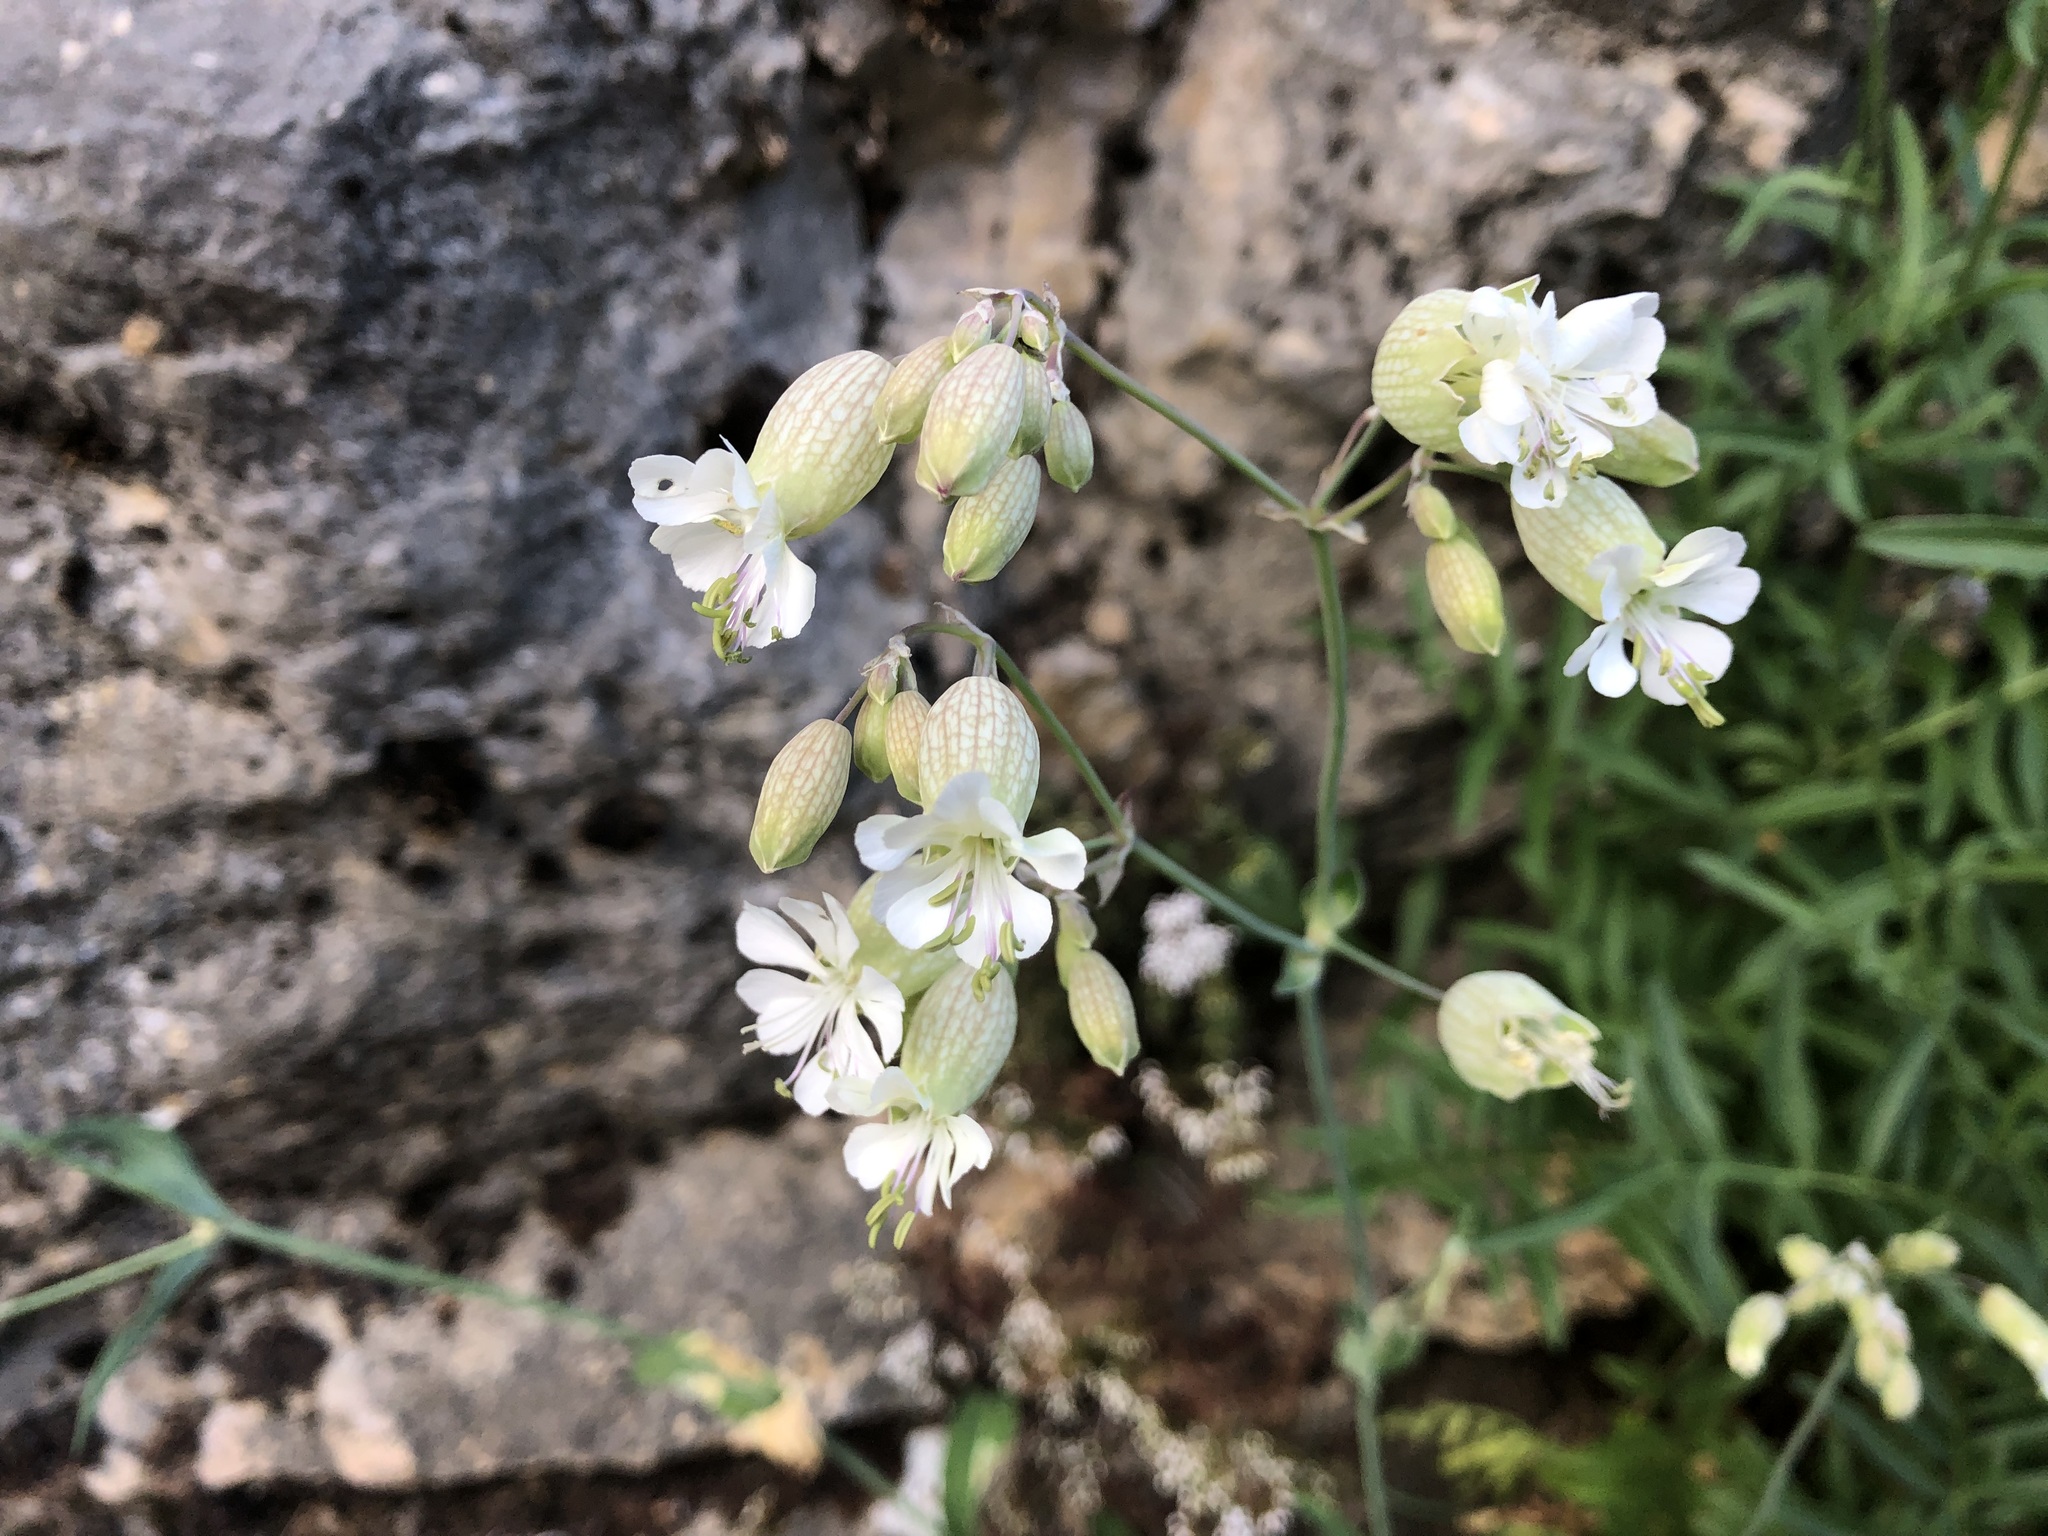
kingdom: Plantae
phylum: Tracheophyta
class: Magnoliopsida
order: Caryophyllales
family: Caryophyllaceae
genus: Silene
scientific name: Silene vulgaris
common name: Bladder campion
